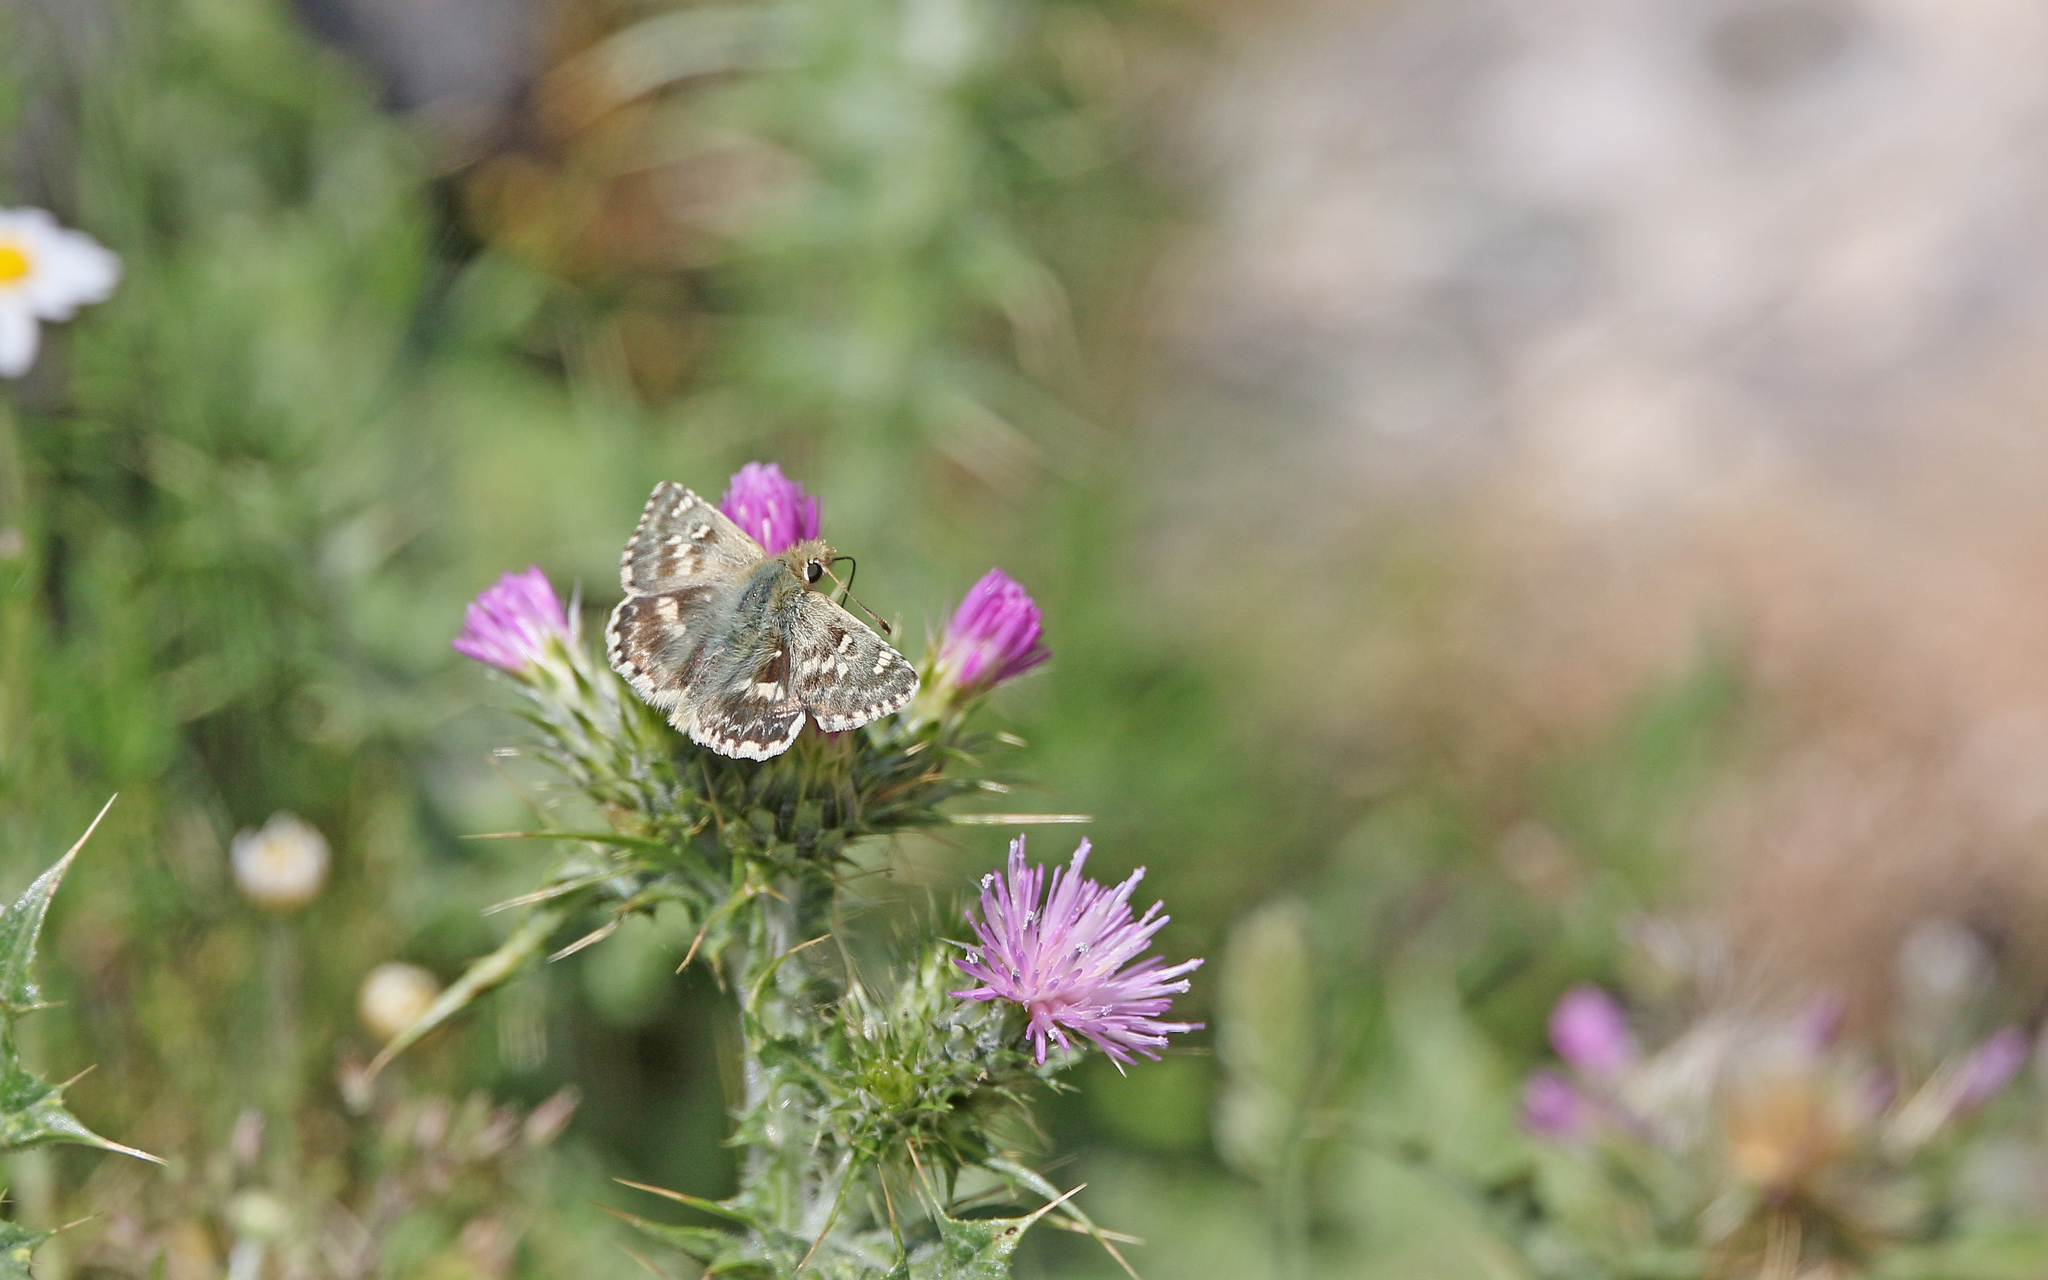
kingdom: Animalia
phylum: Arthropoda
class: Insecta
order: Lepidoptera
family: Hesperiidae
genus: Syrichtus
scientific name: Syrichtus Muschampia proto
